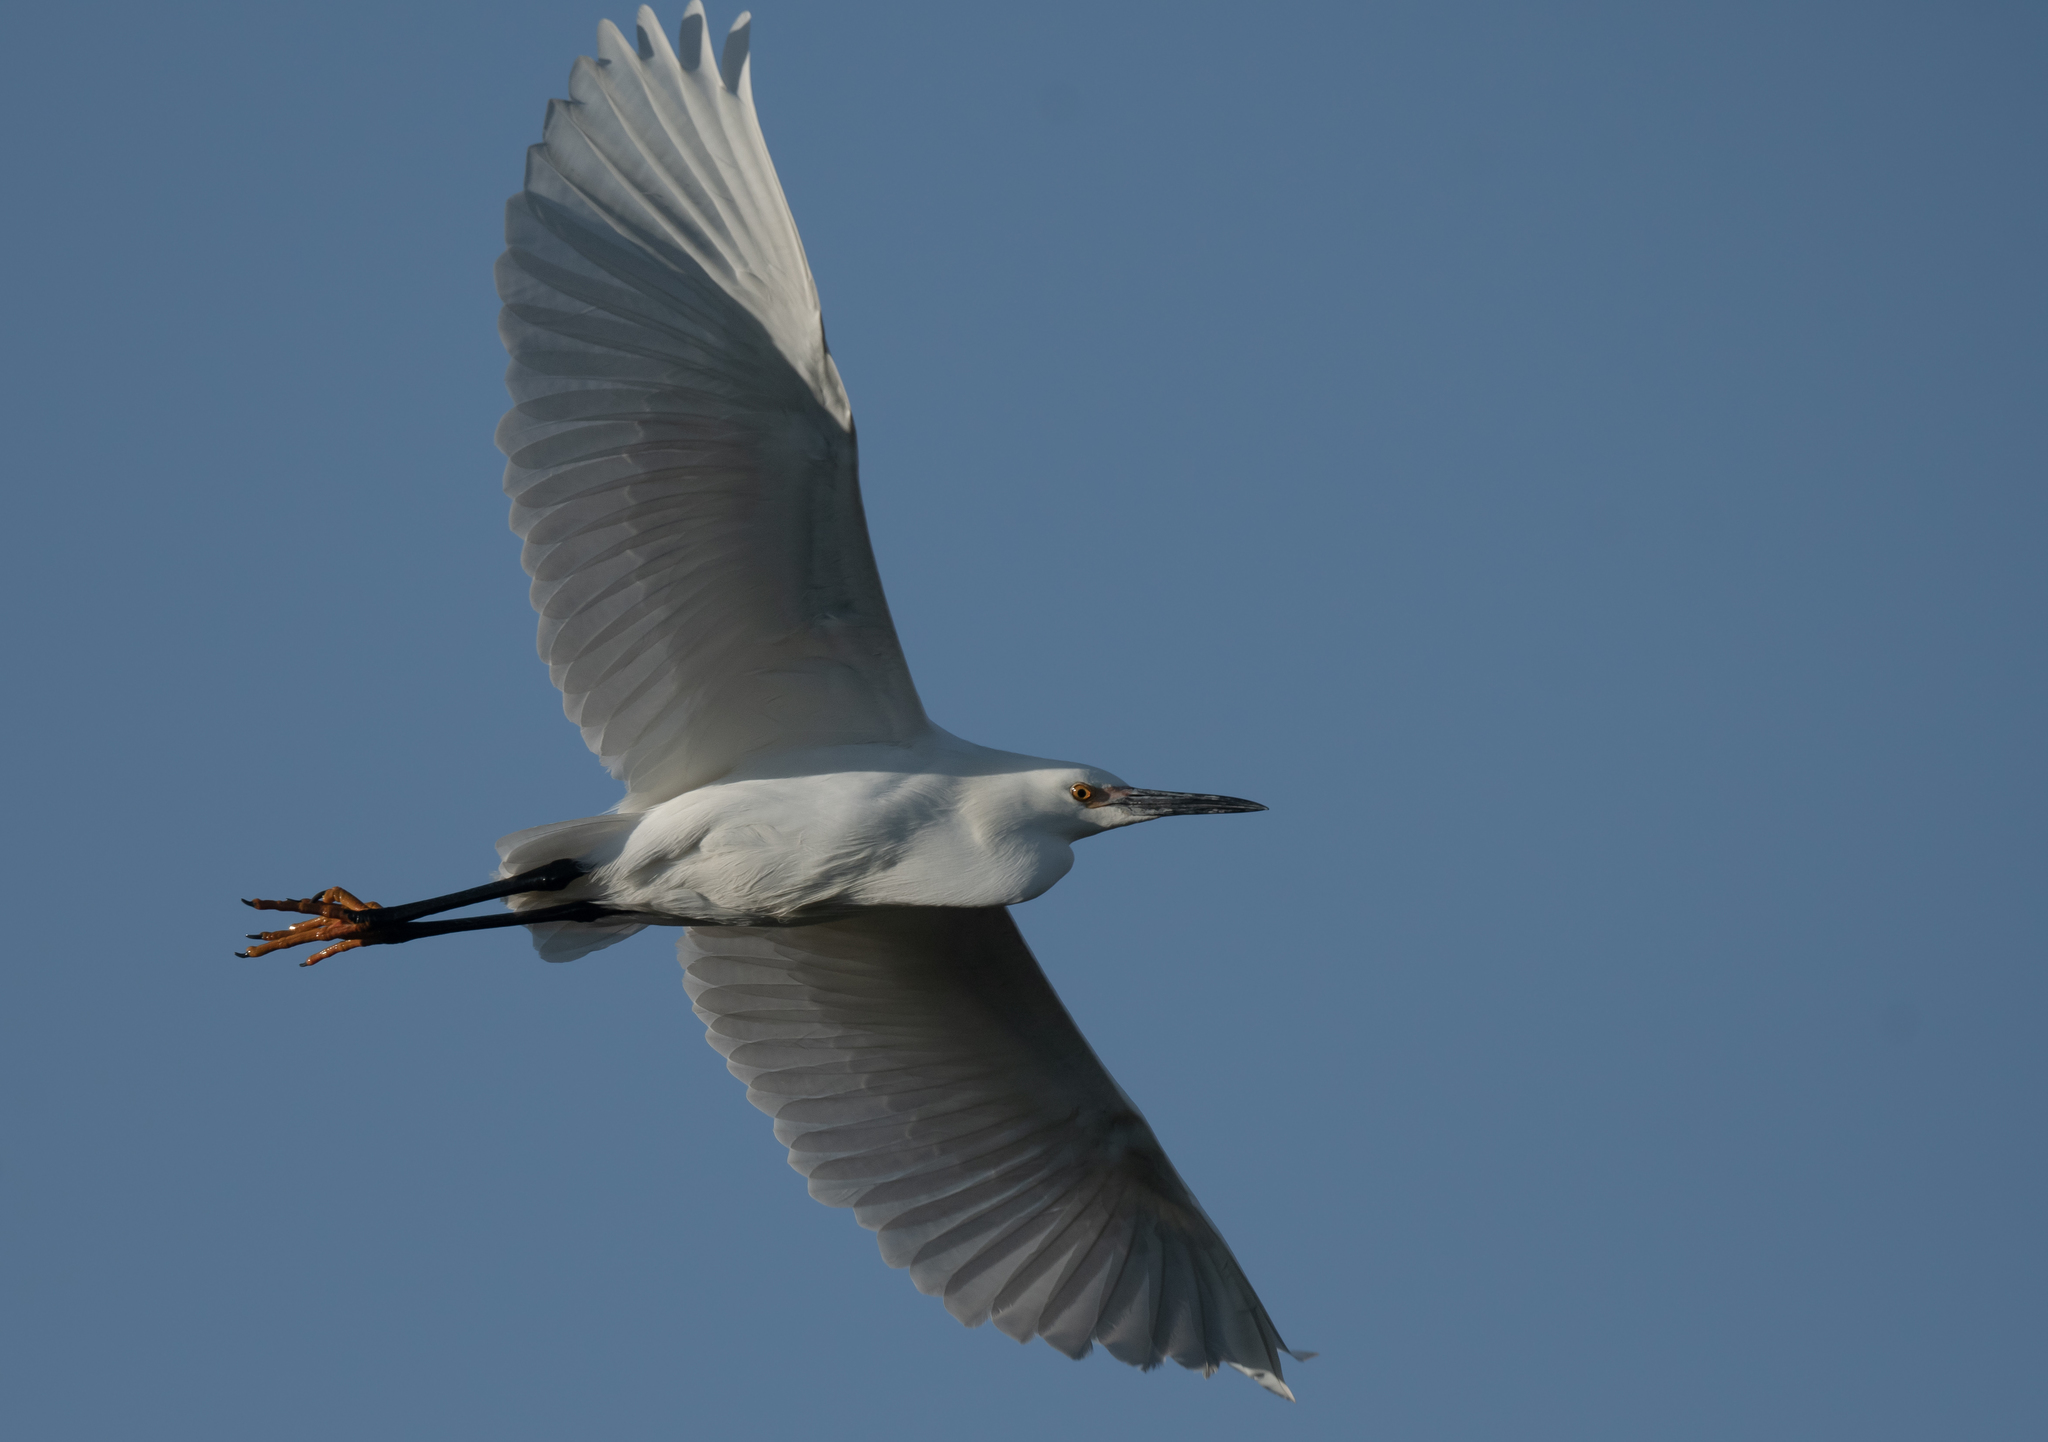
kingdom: Animalia
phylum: Chordata
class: Aves
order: Pelecaniformes
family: Ardeidae
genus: Egretta
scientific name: Egretta thula
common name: Snowy egret
